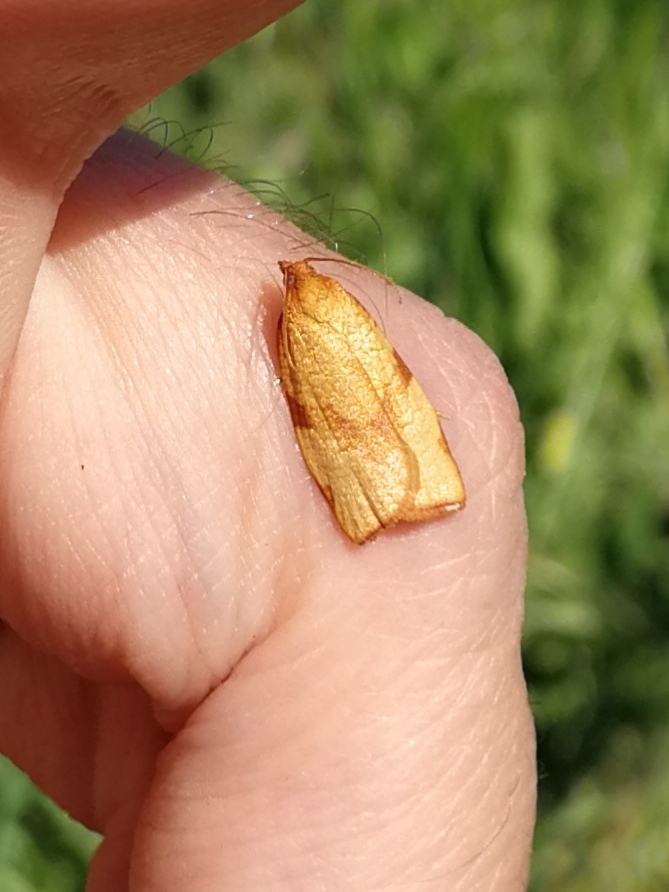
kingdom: Animalia
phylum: Arthropoda
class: Insecta
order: Lepidoptera
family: Tortricidae
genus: Lozotaenia
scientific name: Lozotaenia cupidinana
